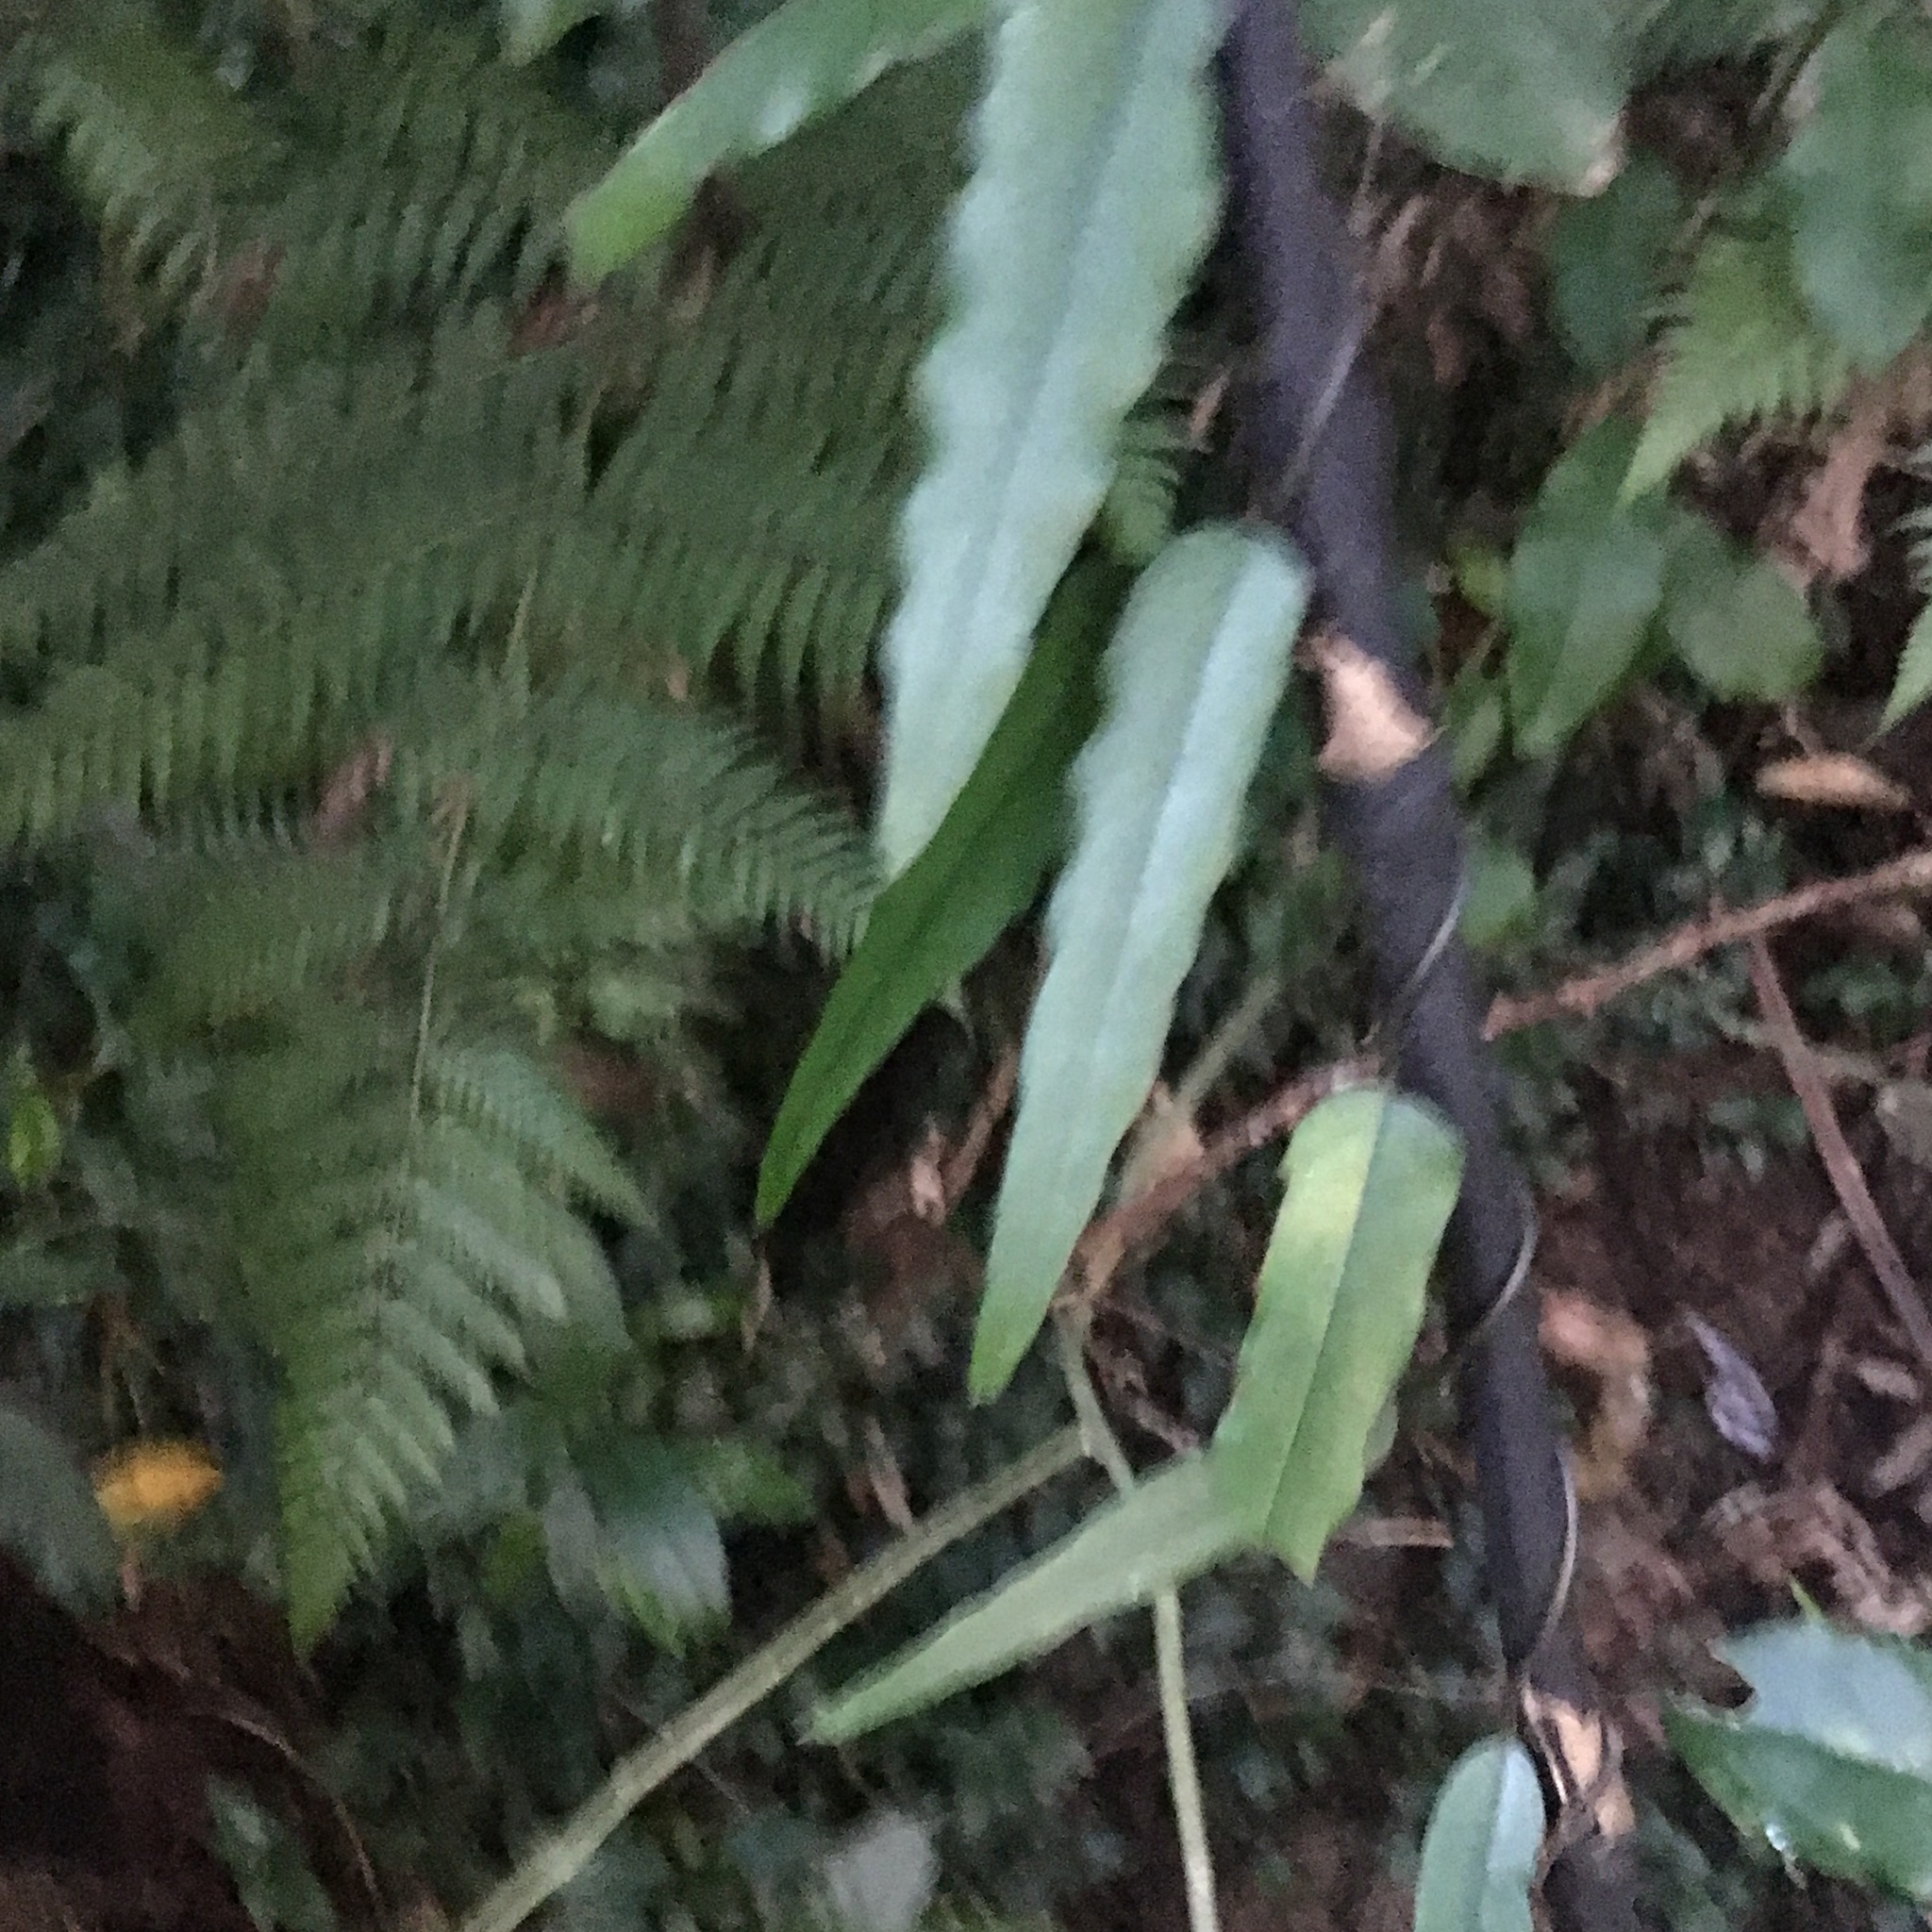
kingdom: Plantae
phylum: Tracheophyta
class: Magnoliopsida
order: Gentianales
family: Apocynaceae
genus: Parsonsia
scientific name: Parsonsia heterophylla
